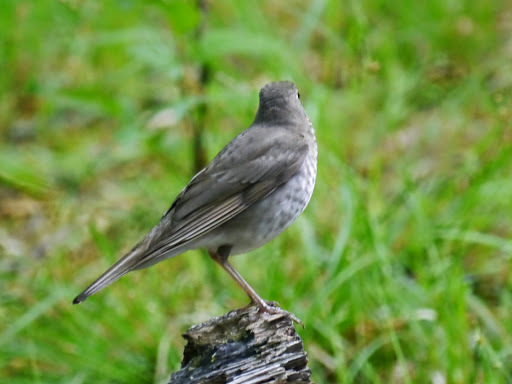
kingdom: Animalia
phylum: Chordata
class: Aves
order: Passeriformes
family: Turdidae
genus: Catharus
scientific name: Catharus minimus
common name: Grey-cheeked thrush
